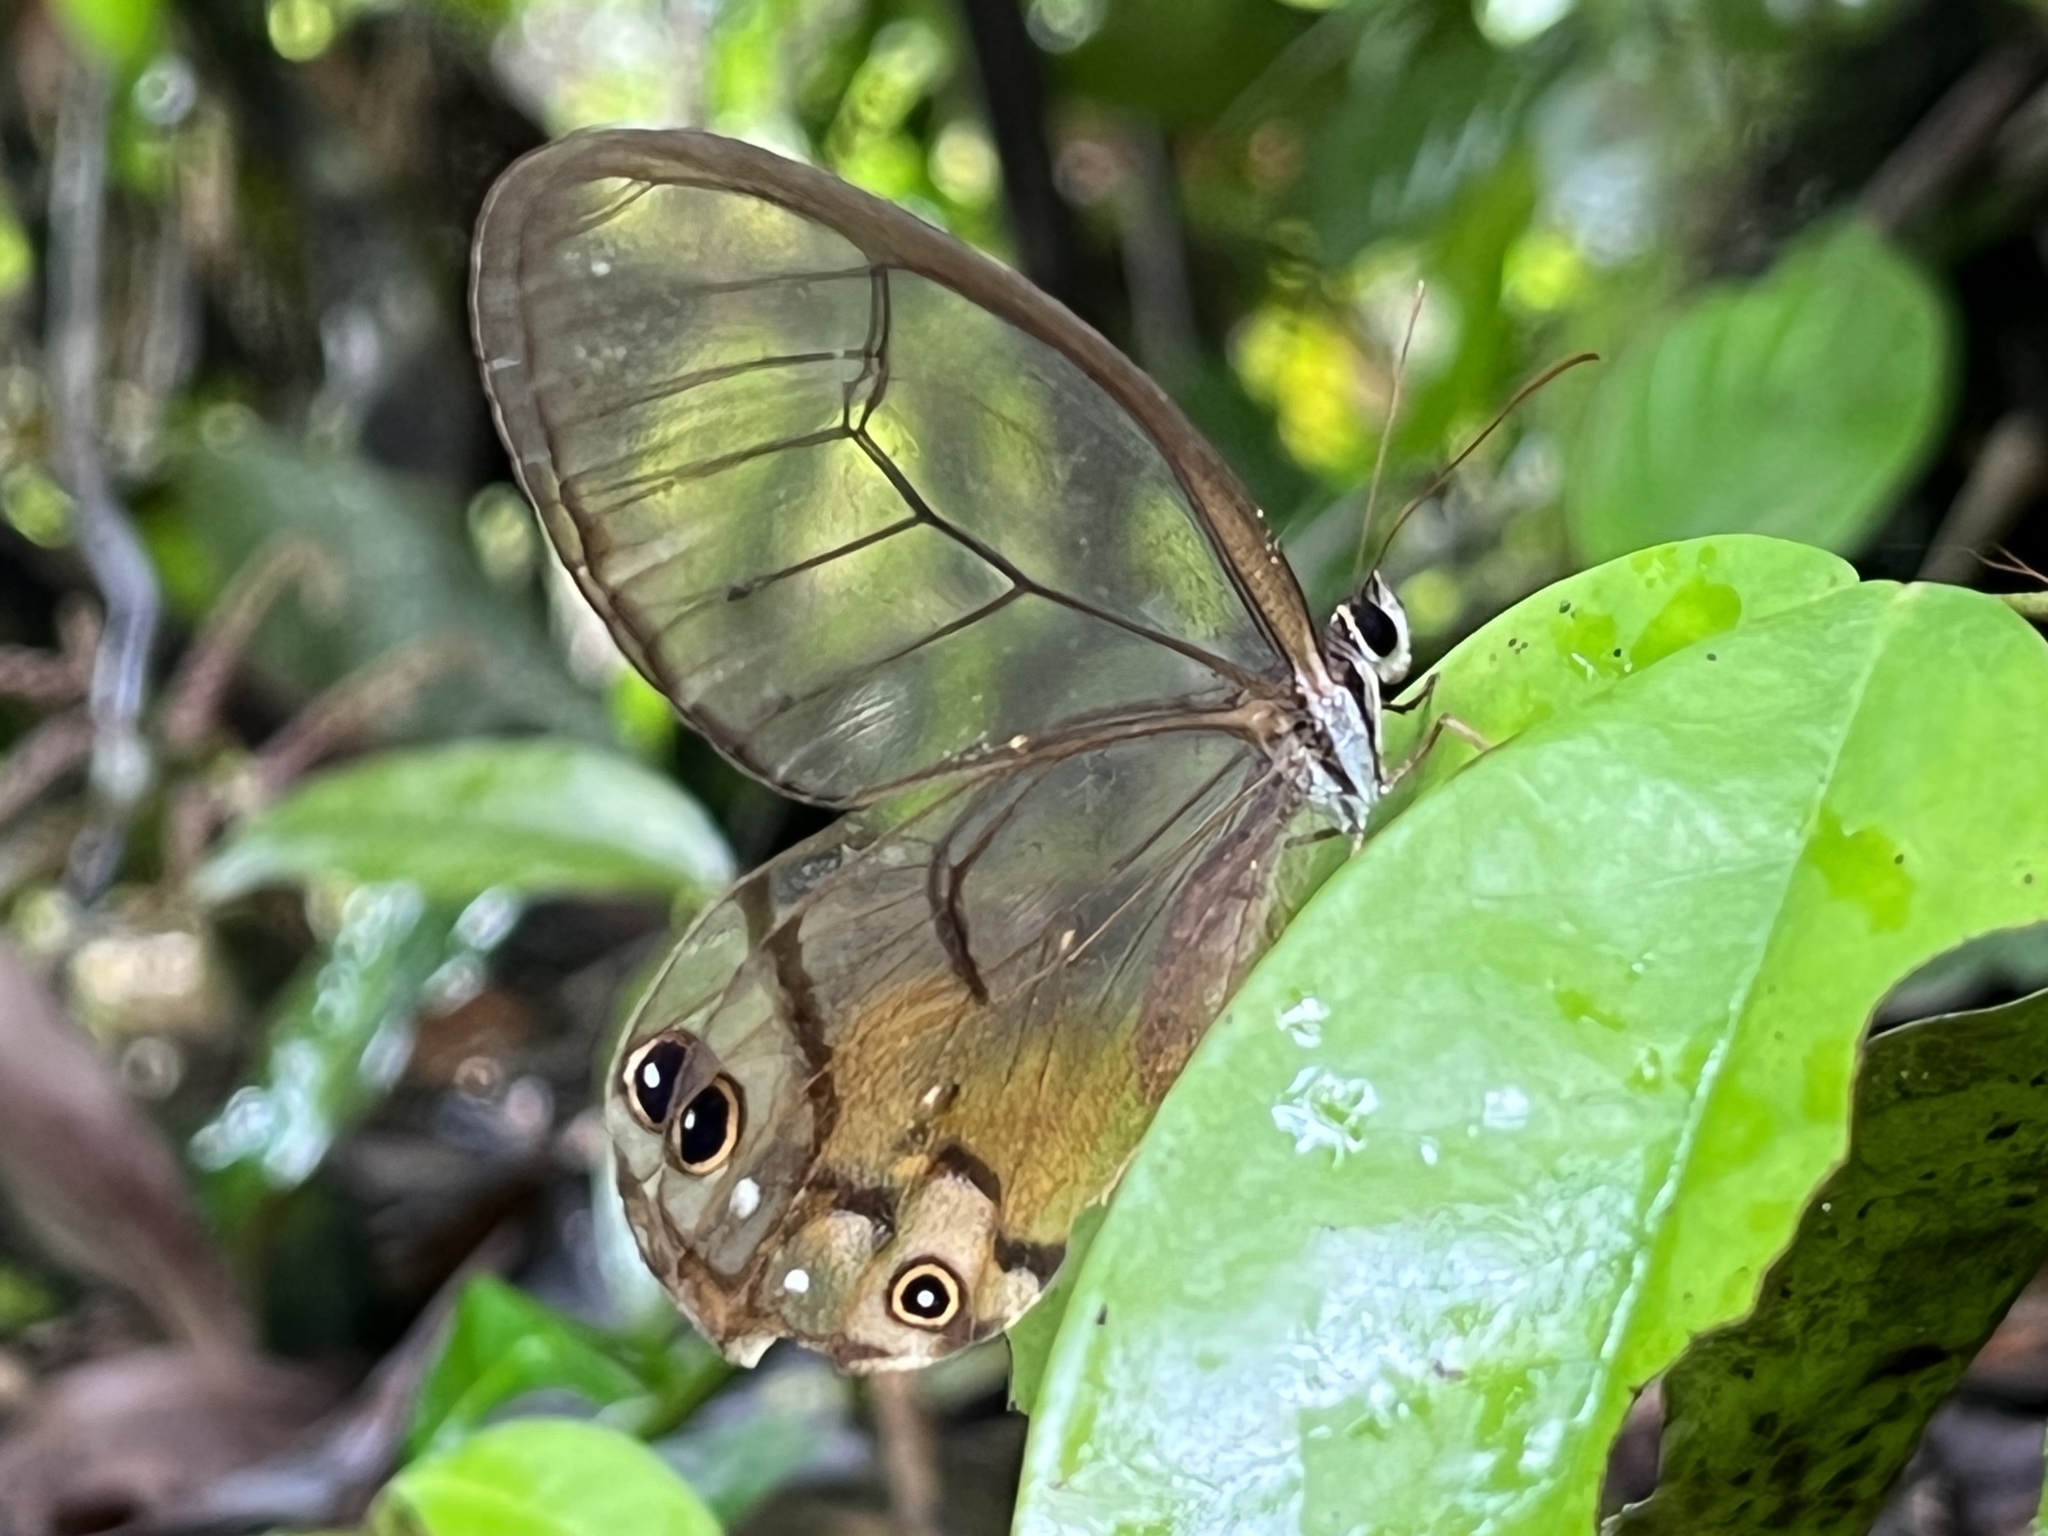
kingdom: Animalia
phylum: Arthropoda
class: Insecta
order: Lepidoptera
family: Nymphalidae
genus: Haetera
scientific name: Haetera piera
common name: Amber phantom
